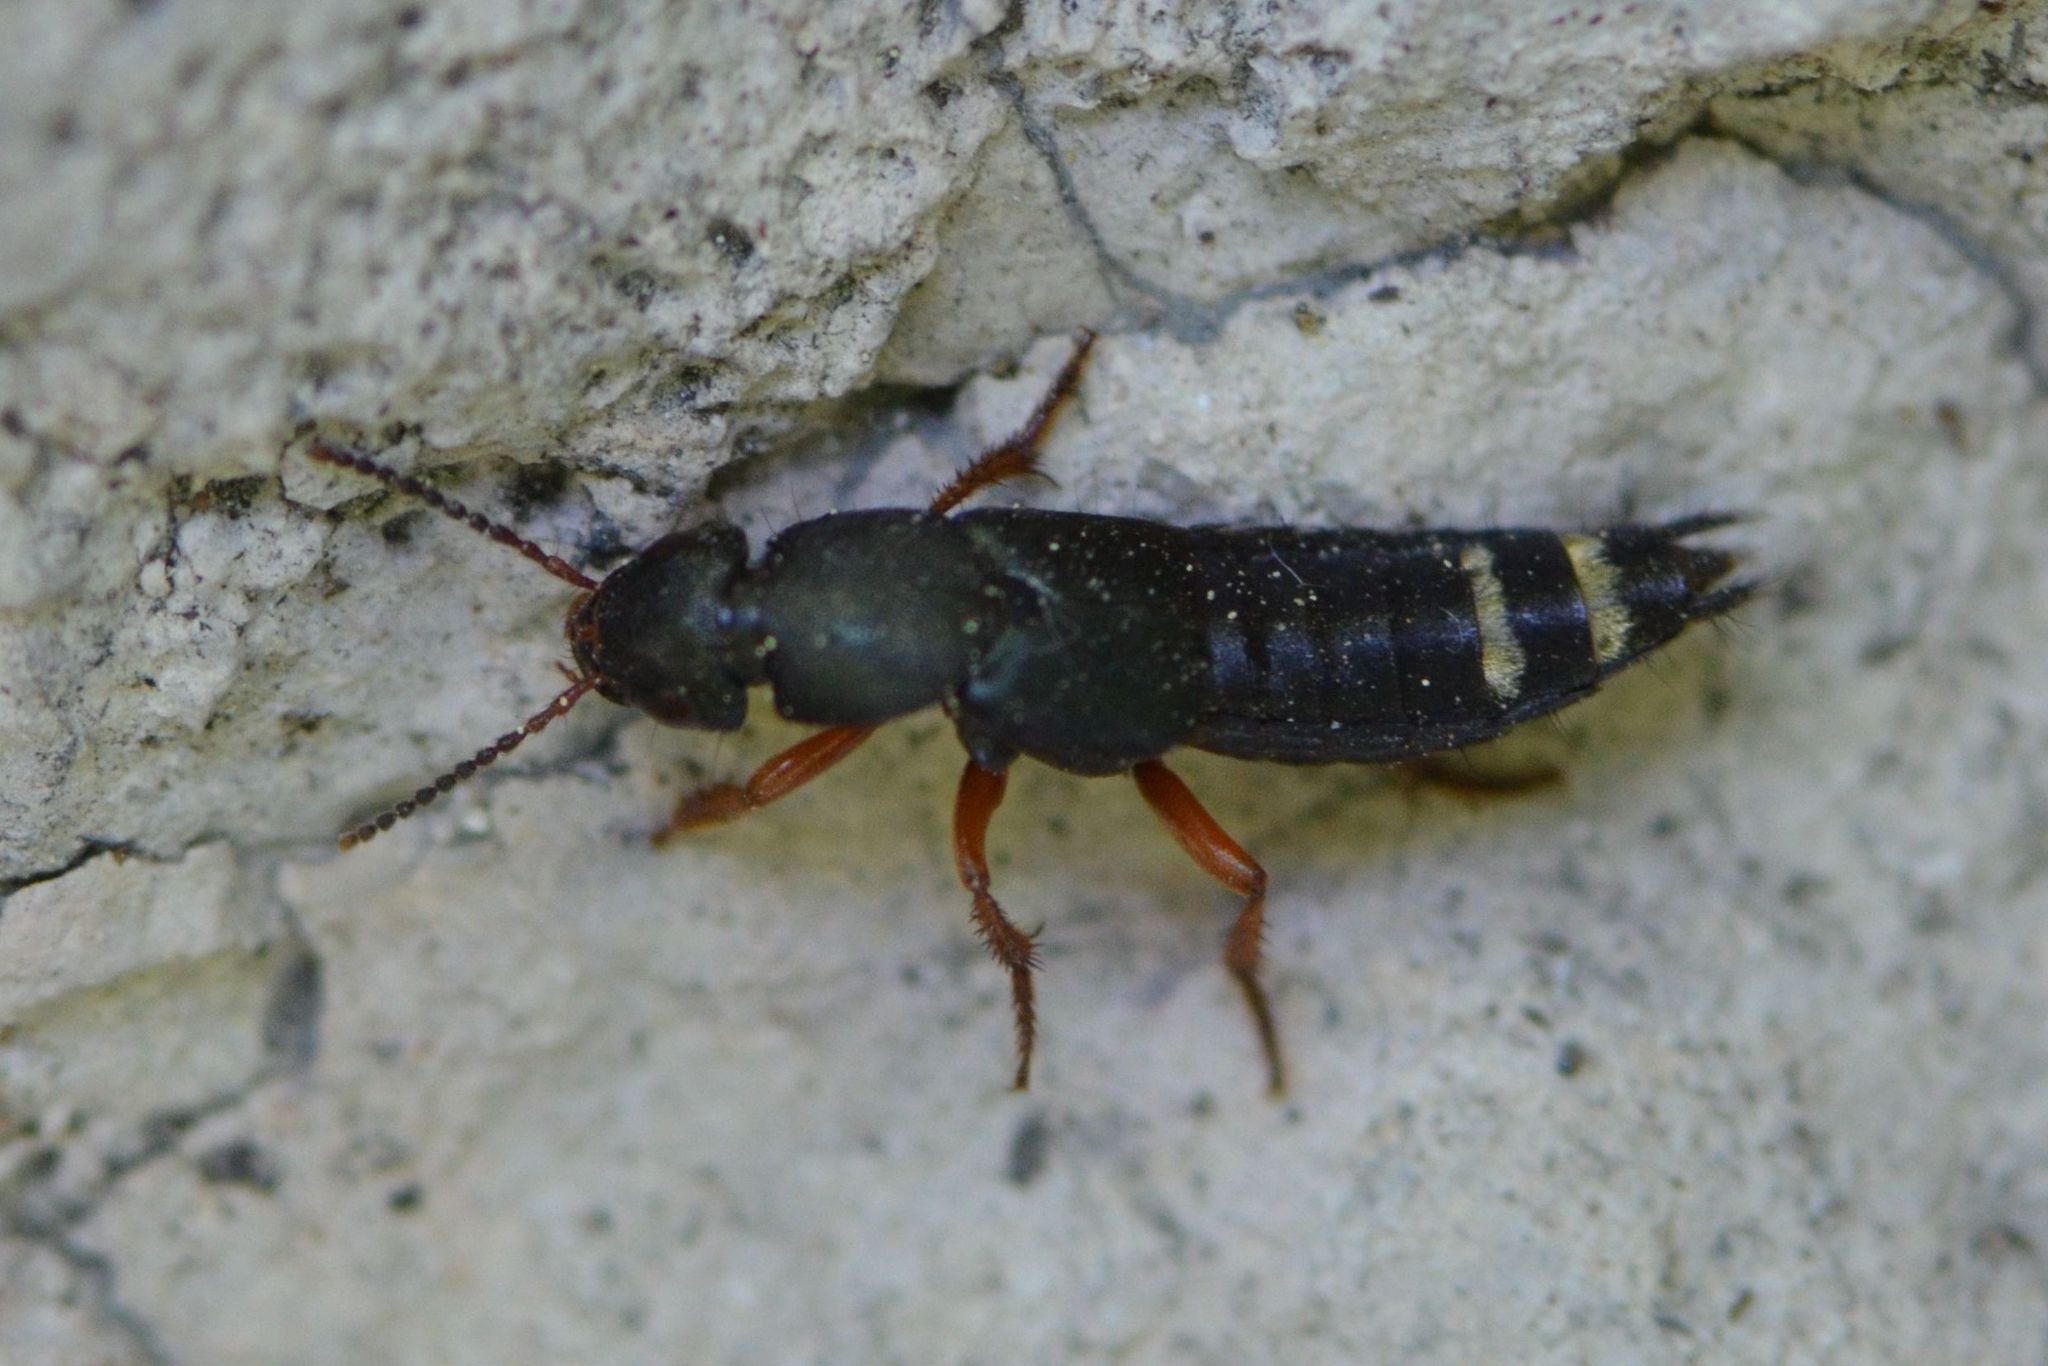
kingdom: Animalia
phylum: Arthropoda
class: Insecta
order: Coleoptera
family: Staphylinidae
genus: Platydracus
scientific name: Platydracus fulvipes
